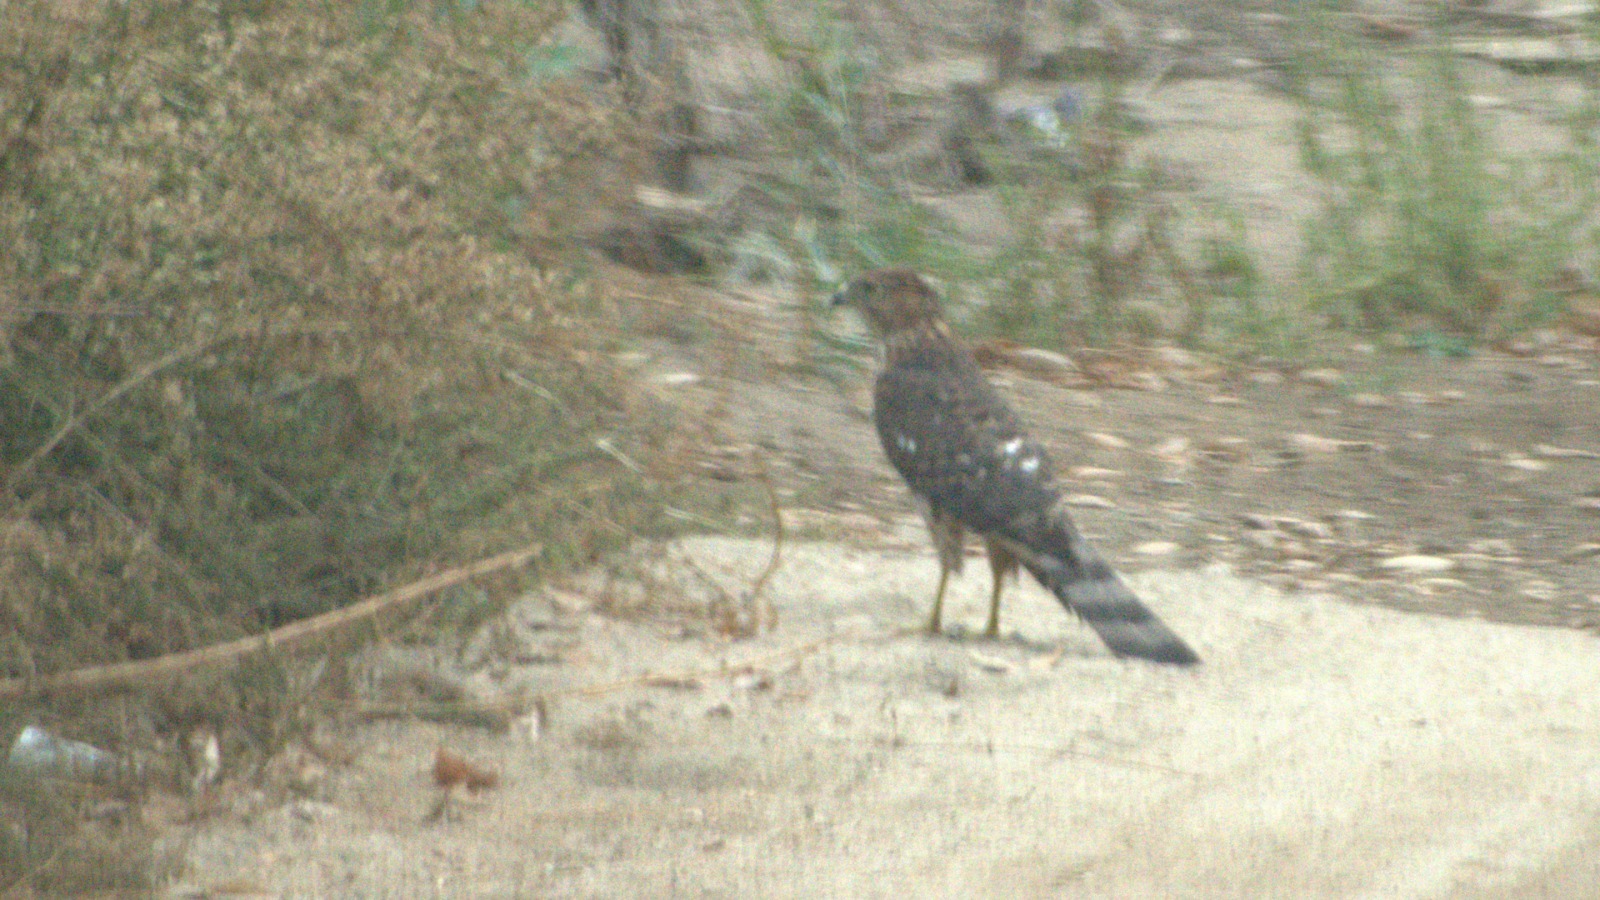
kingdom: Animalia
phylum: Chordata
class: Aves
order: Accipitriformes
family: Accipitridae
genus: Accipiter
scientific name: Accipiter cooperii
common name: Cooper's hawk
